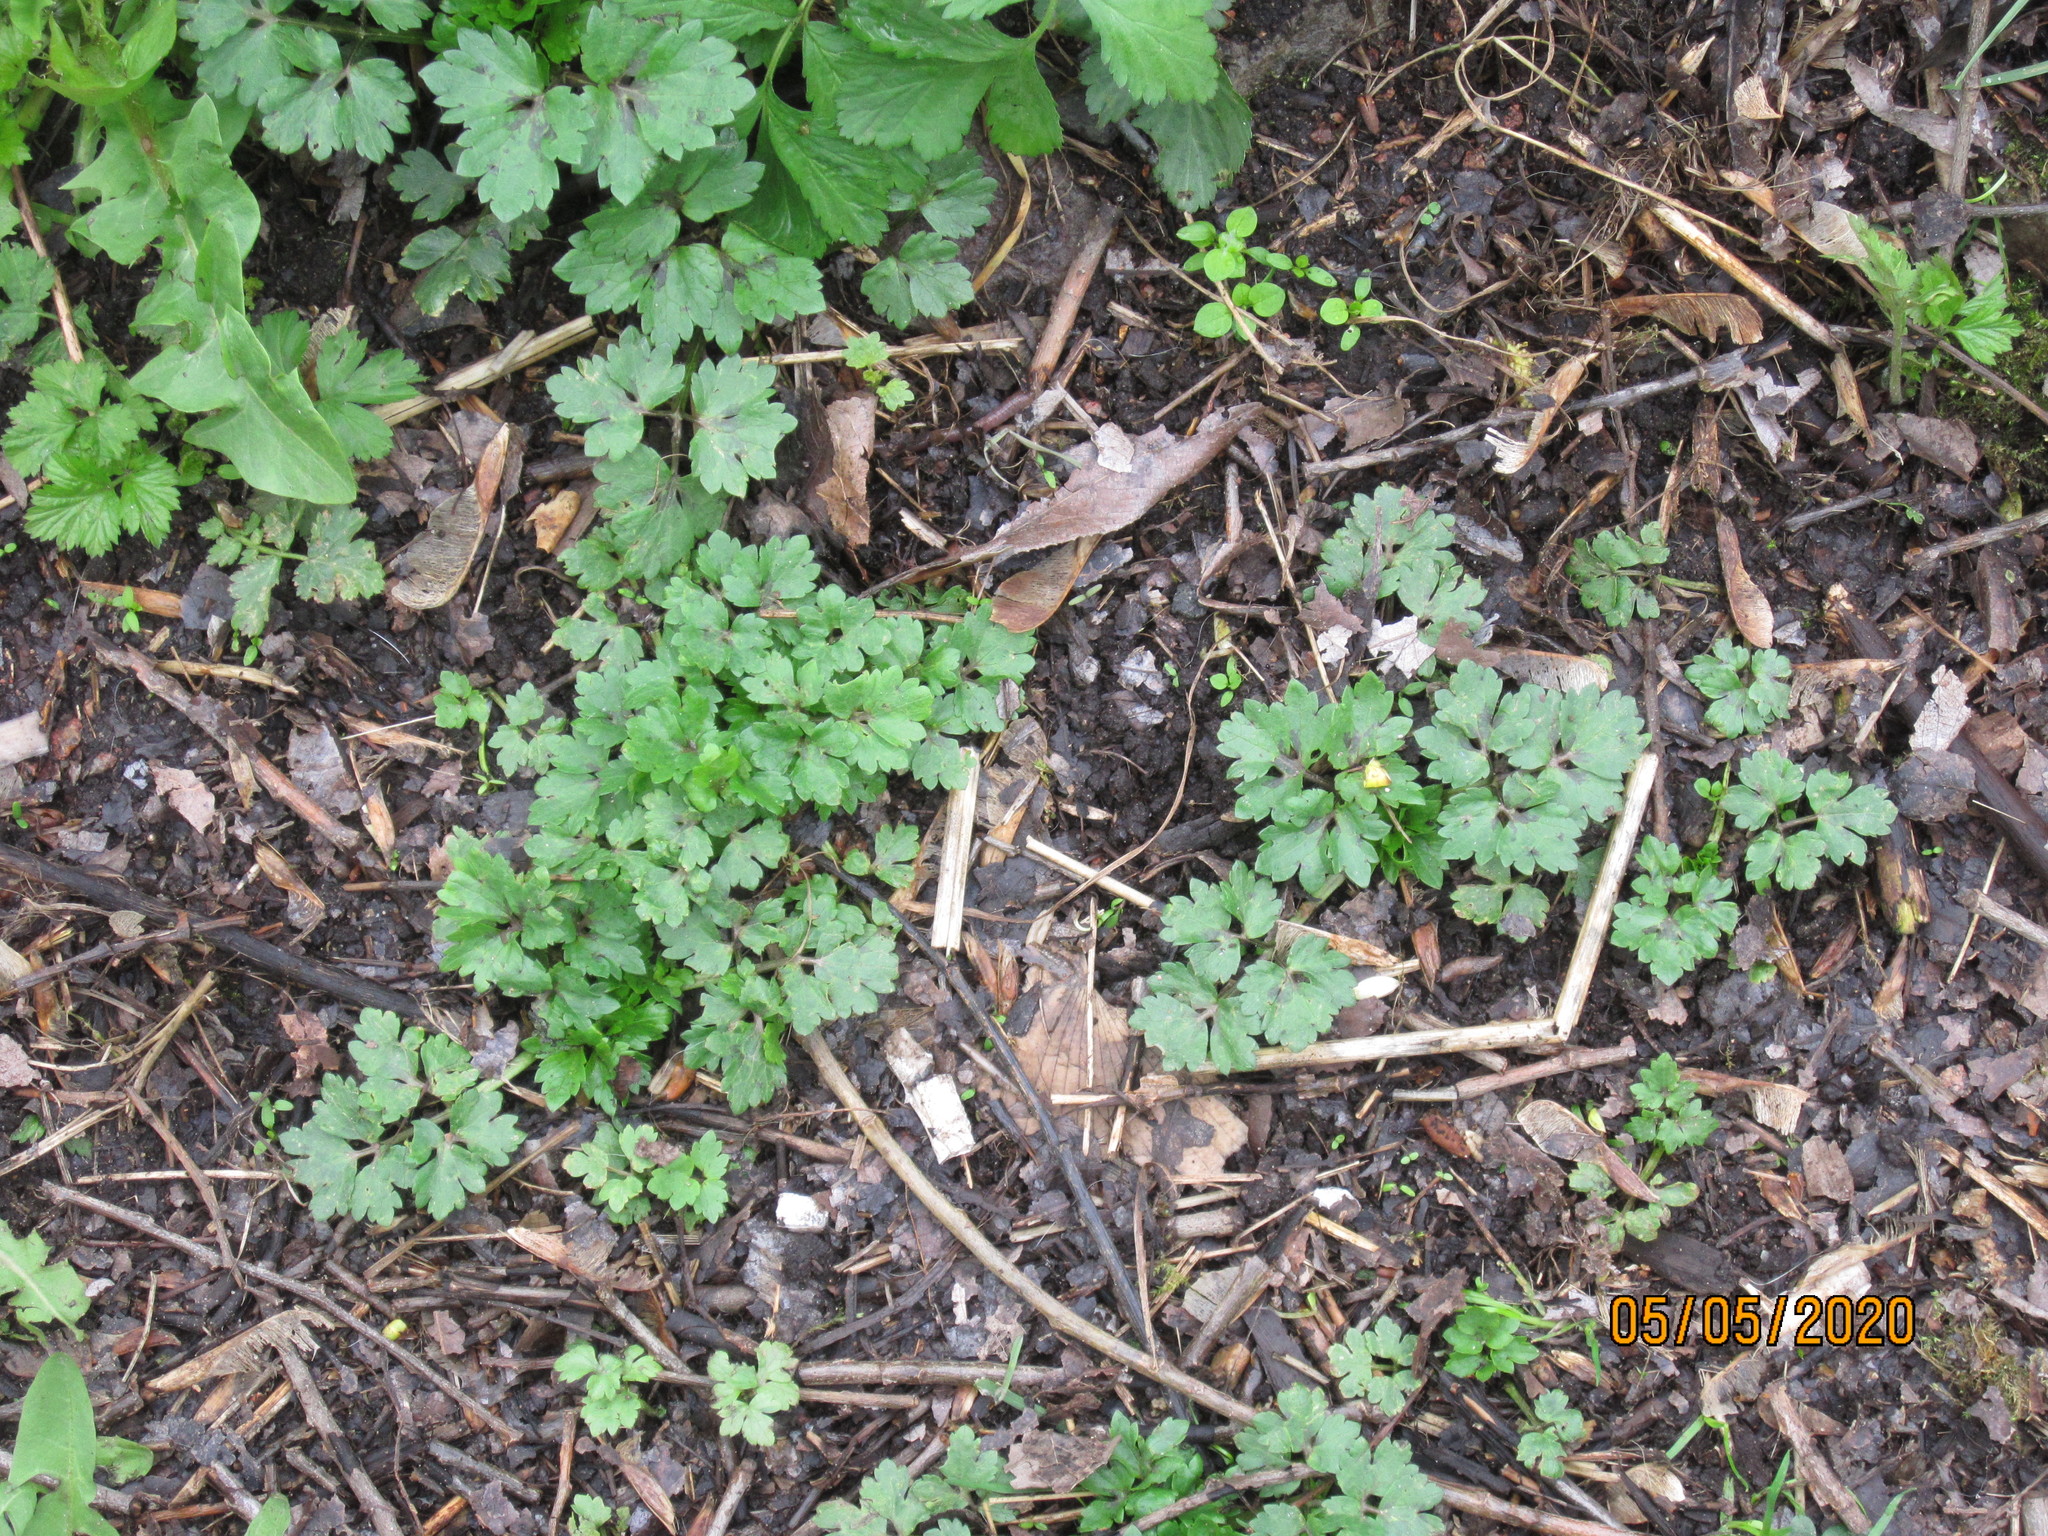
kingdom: Plantae
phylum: Tracheophyta
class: Magnoliopsida
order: Ranunculales
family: Ranunculaceae
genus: Ranunculus
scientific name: Ranunculus repens
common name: Creeping buttercup
